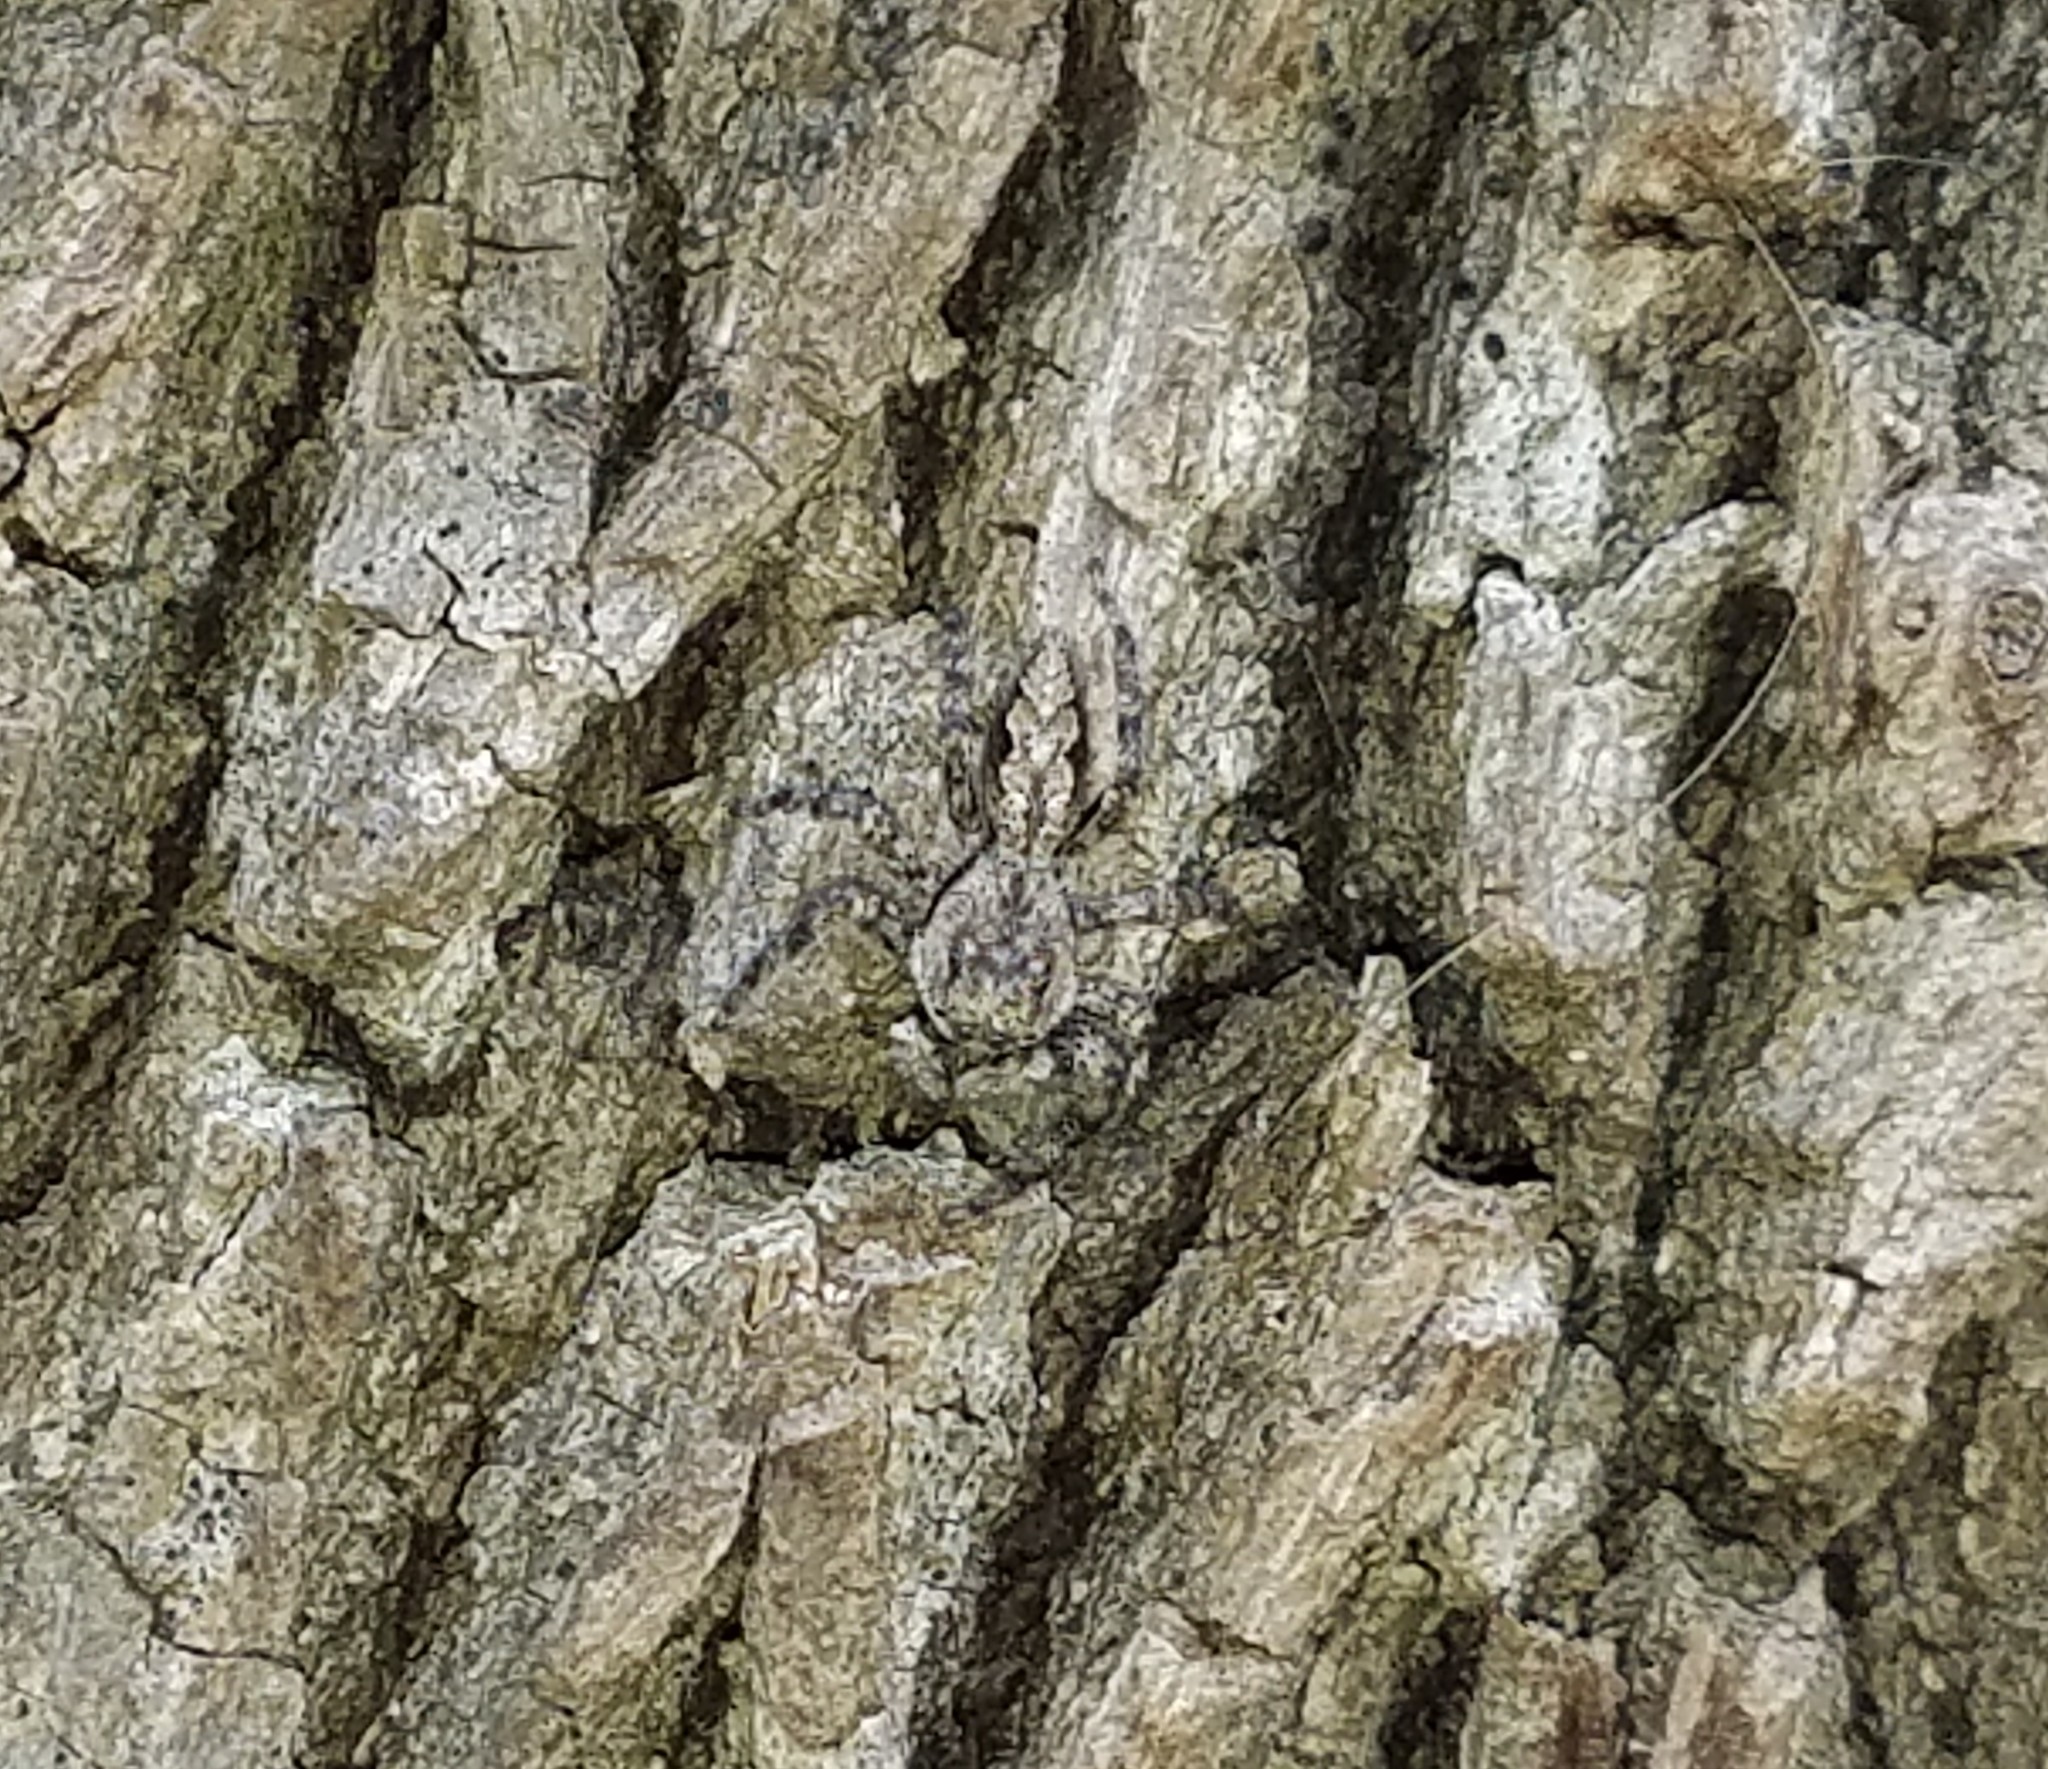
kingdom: Animalia
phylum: Arthropoda
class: Arachnida
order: Araneae
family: Salticidae
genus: Platycryptus
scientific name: Platycryptus undatus
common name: Tan jumping spider
